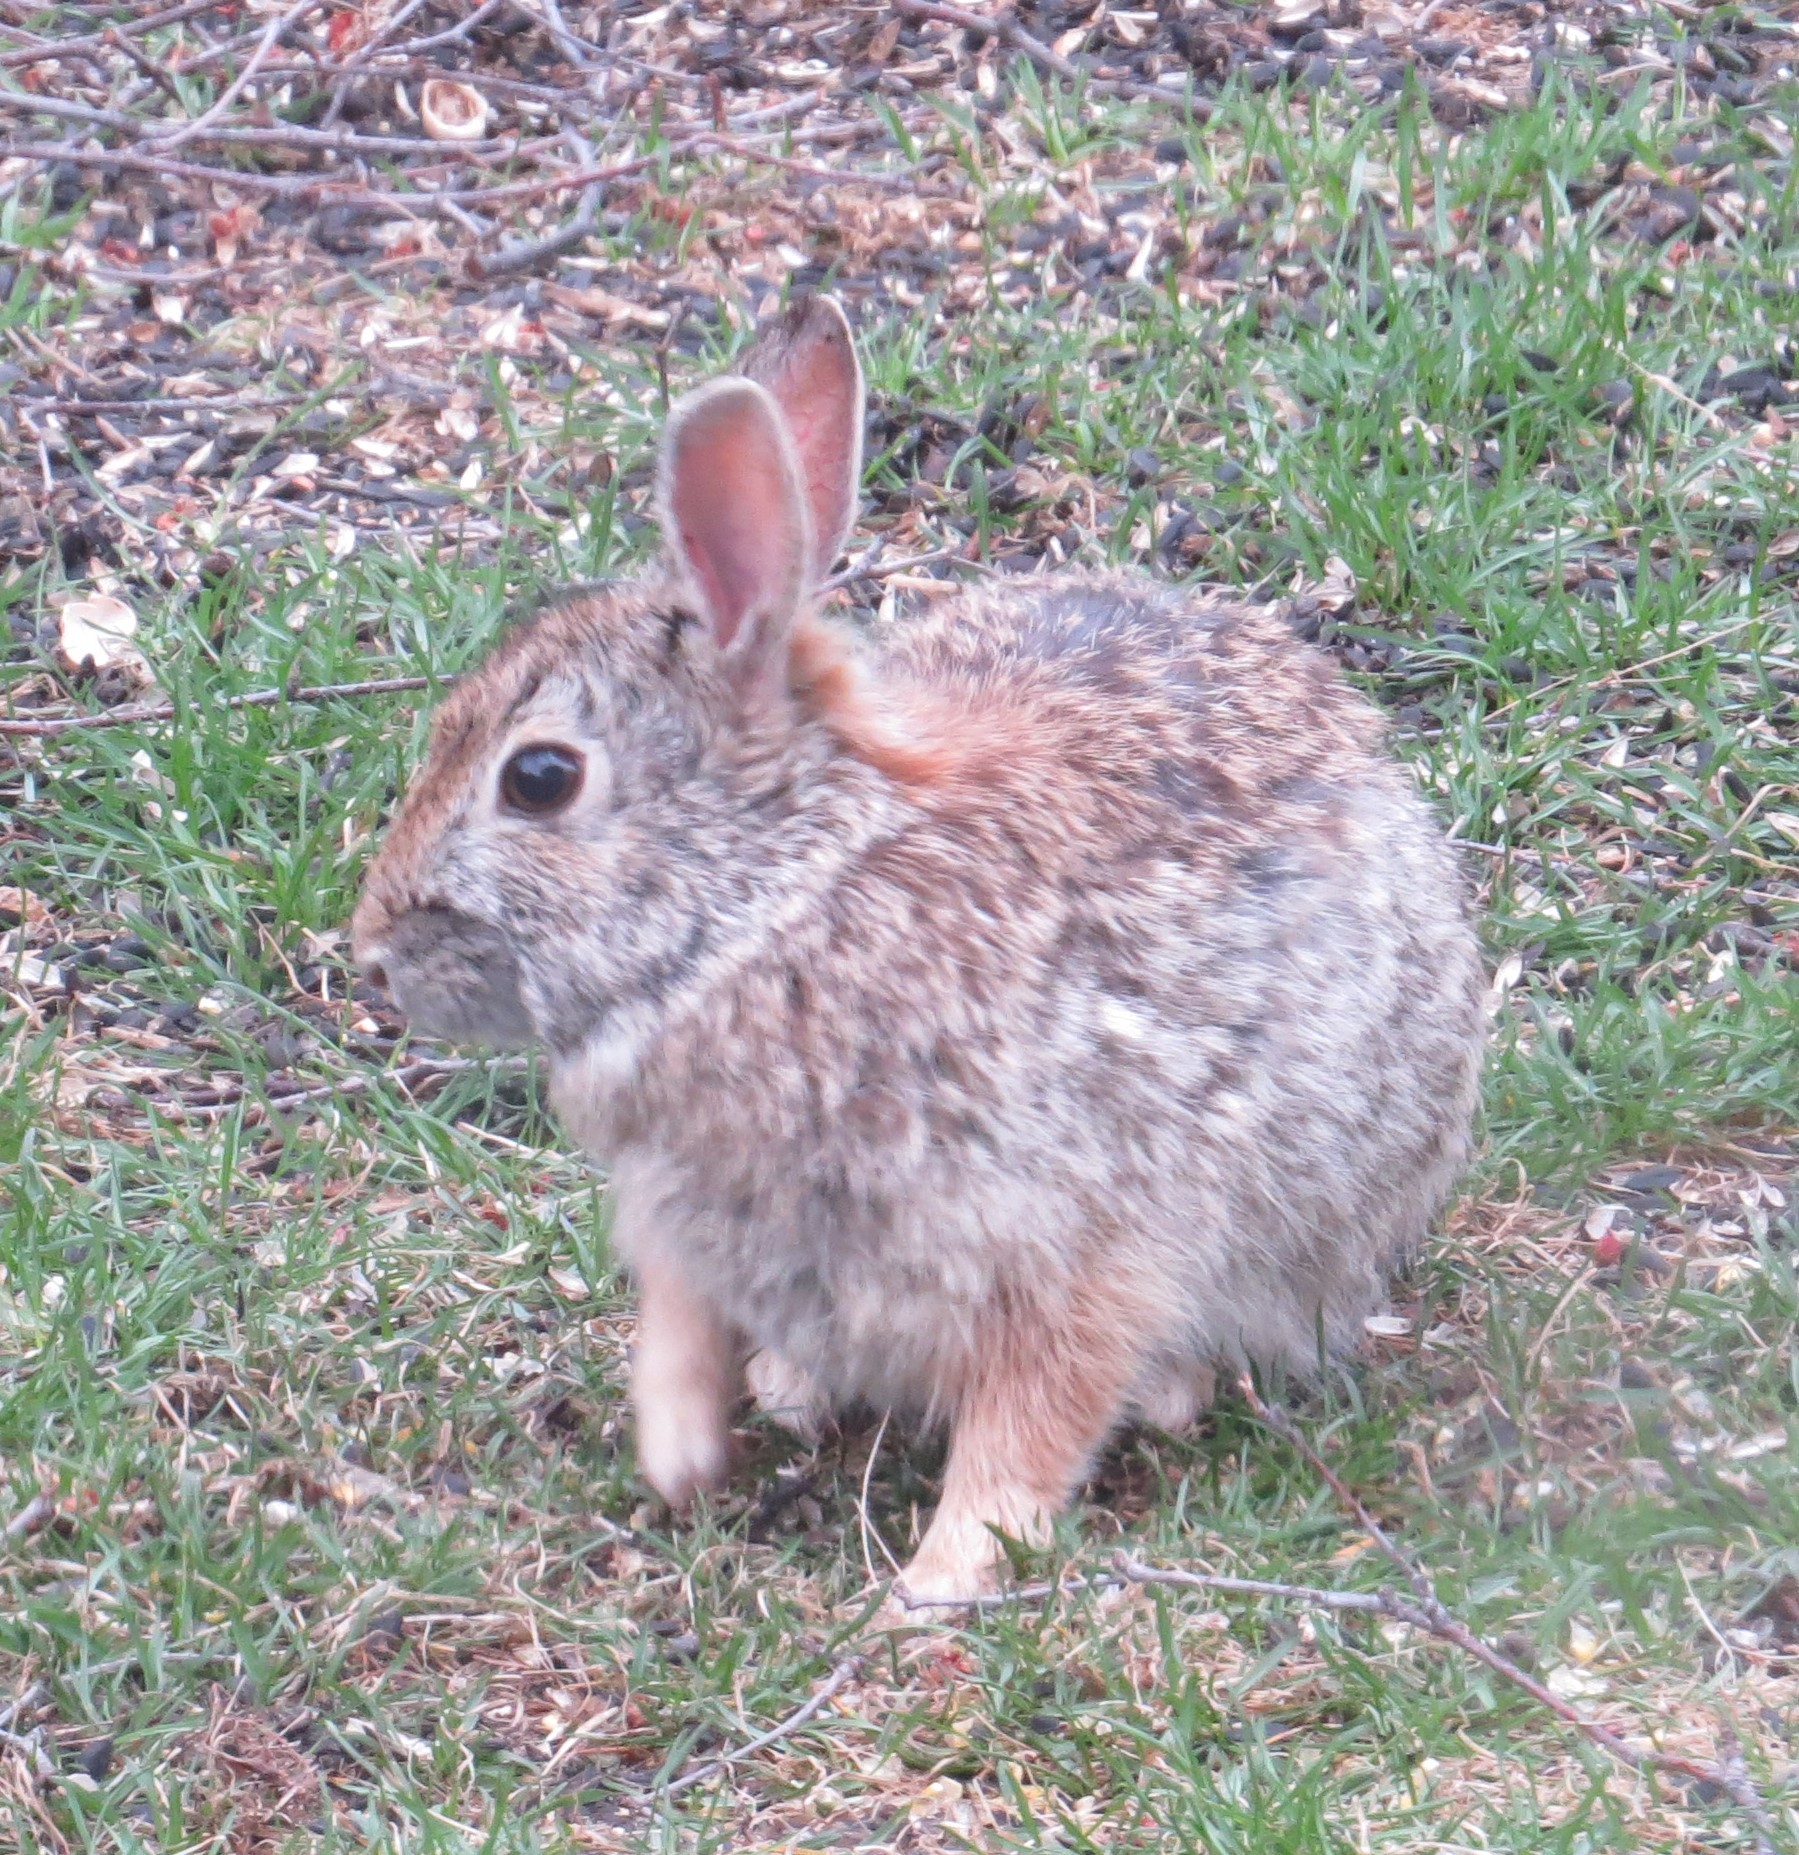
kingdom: Animalia
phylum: Chordata
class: Mammalia
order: Lagomorpha
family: Leporidae
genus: Sylvilagus
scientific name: Sylvilagus floridanus
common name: Eastern cottontail
